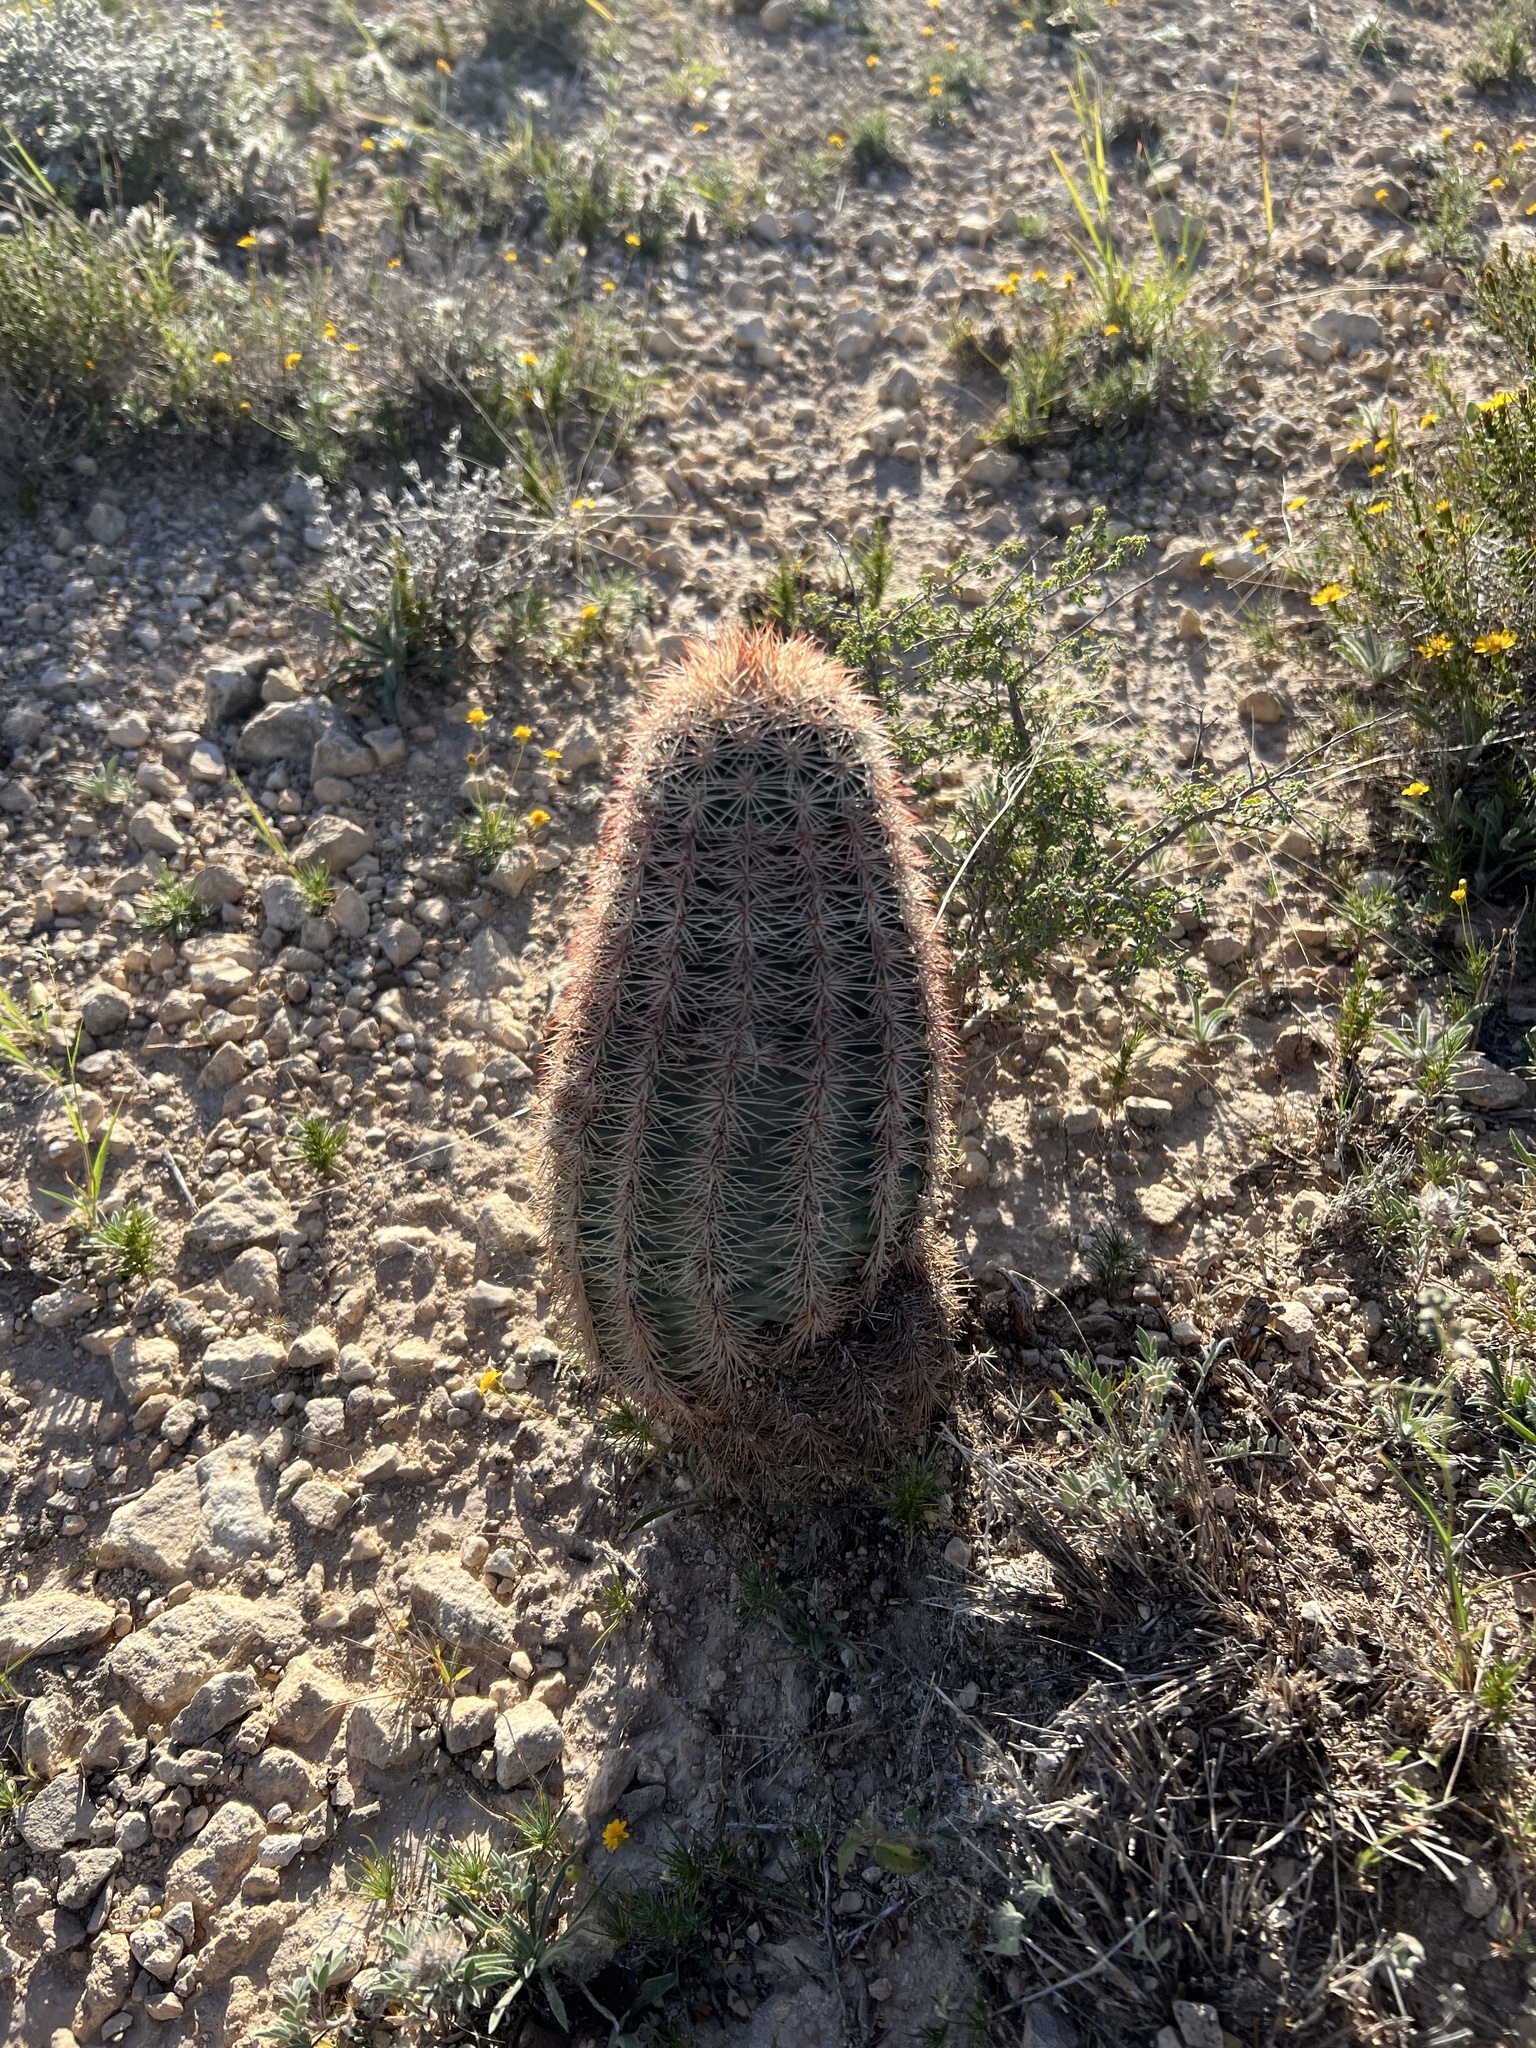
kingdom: Plantae
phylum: Tracheophyta
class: Magnoliopsida
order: Caryophyllales
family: Cactaceae
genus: Echinocereus
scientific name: Echinocereus dasyacanthus
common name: Spiny hedgehog cactus
